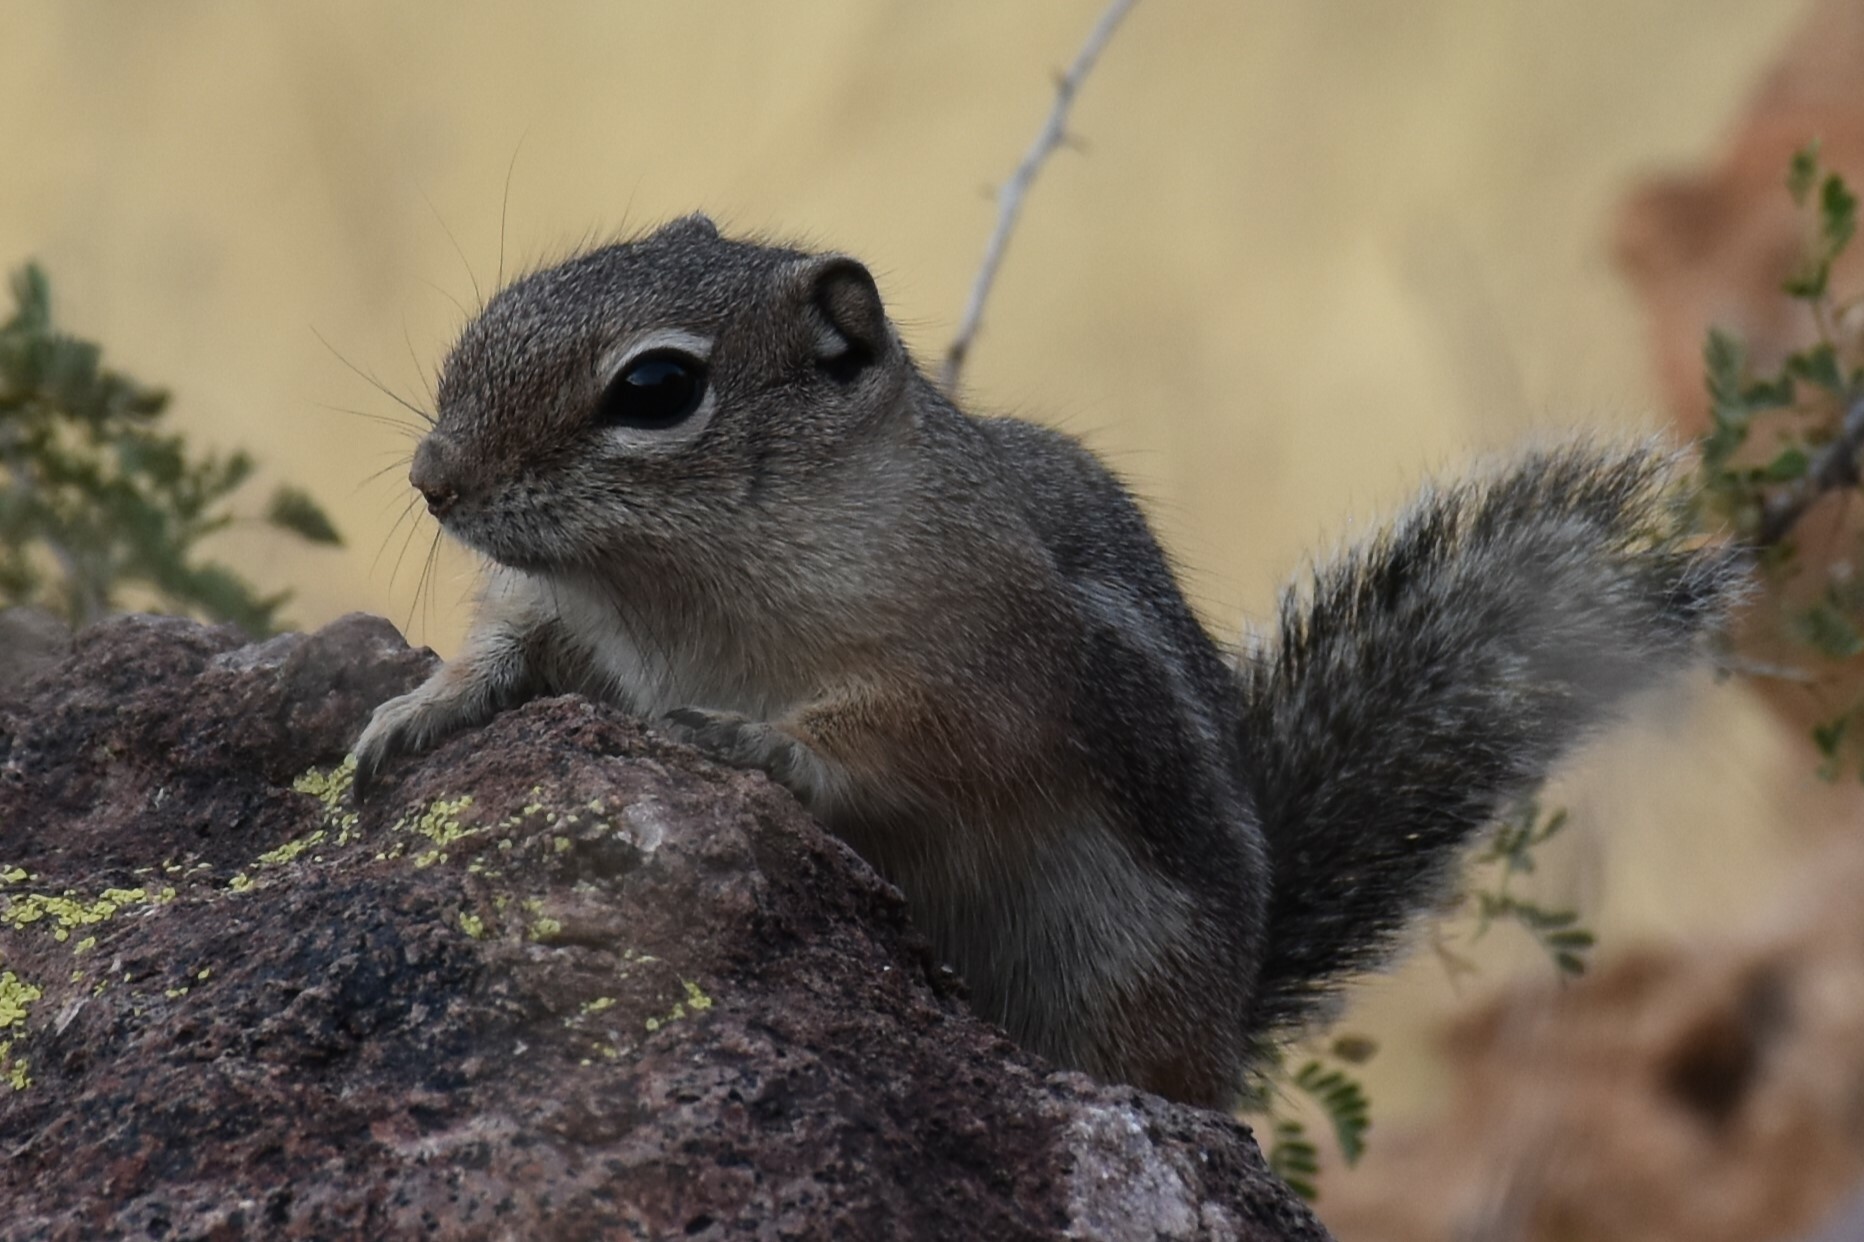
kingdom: Animalia
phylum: Chordata
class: Mammalia
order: Rodentia
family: Sciuridae
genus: Ammospermophilus
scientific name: Ammospermophilus harrisii
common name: Harris's antelope squirrel
